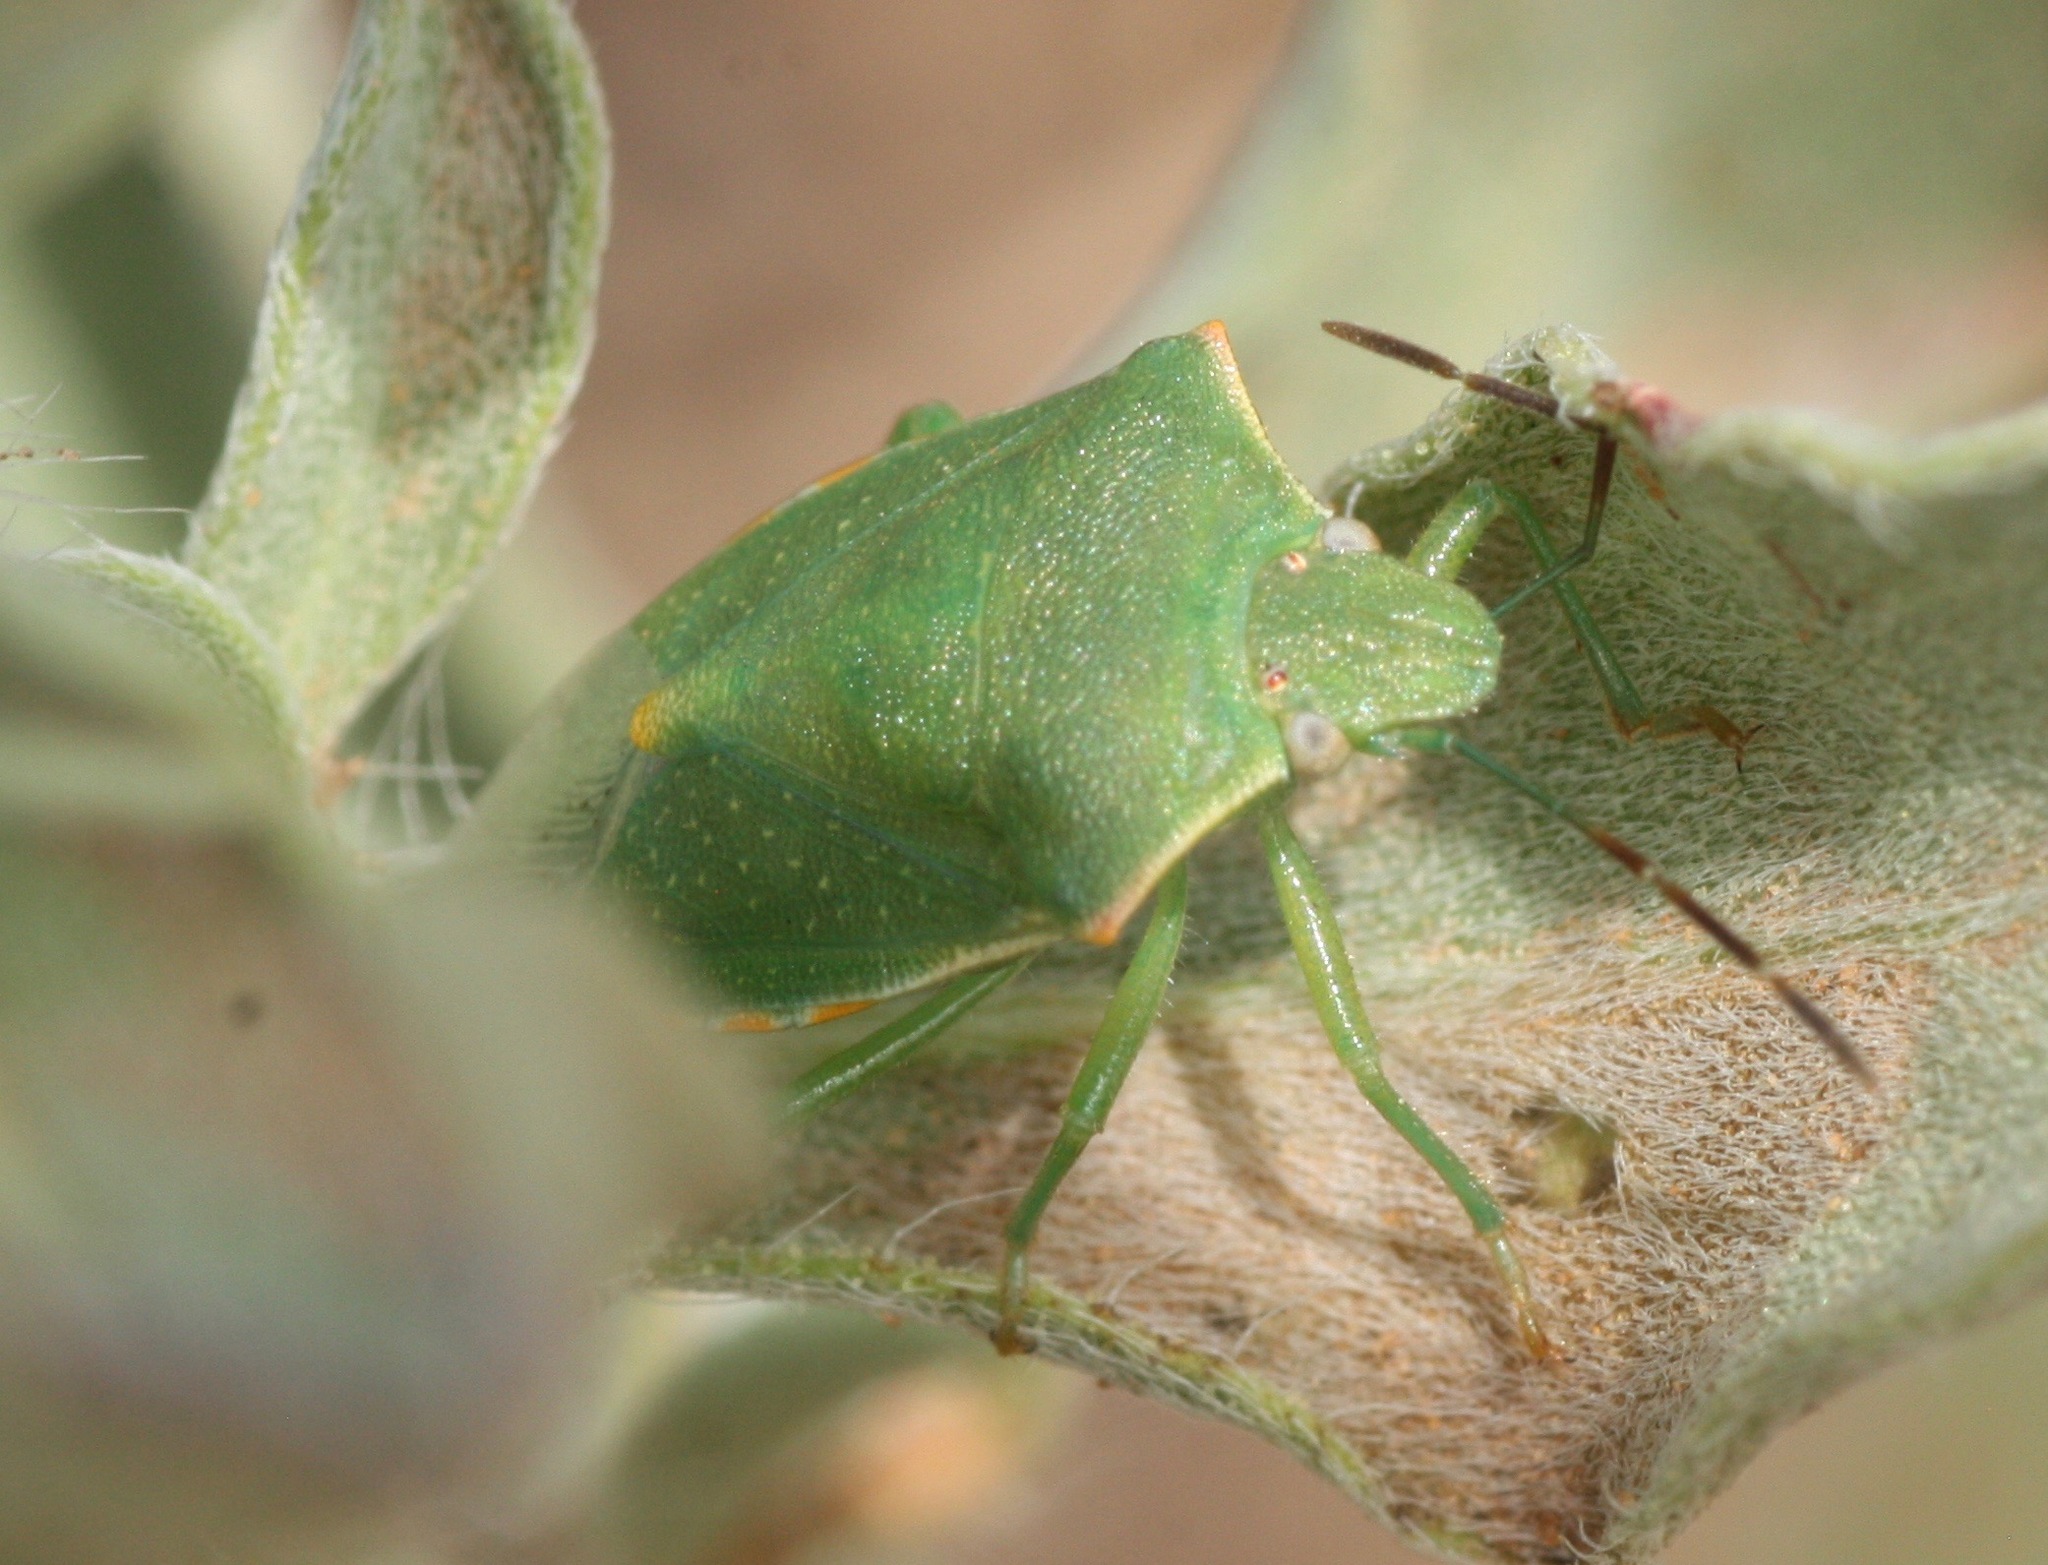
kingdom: Animalia
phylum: Arthropoda
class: Insecta
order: Hemiptera
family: Pentatomidae
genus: Thyanta
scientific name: Thyanta custator
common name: Stink bug
